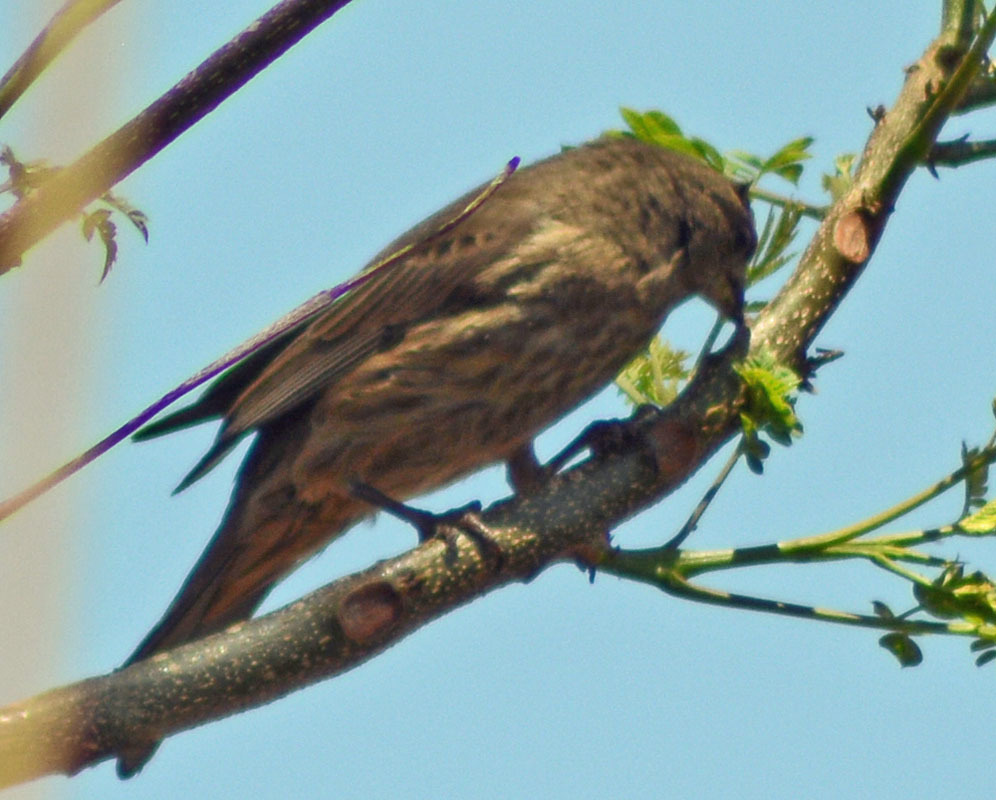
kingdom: Animalia
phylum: Chordata
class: Aves
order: Passeriformes
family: Fringillidae
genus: Haemorhous
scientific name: Haemorhous mexicanus
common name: House finch
